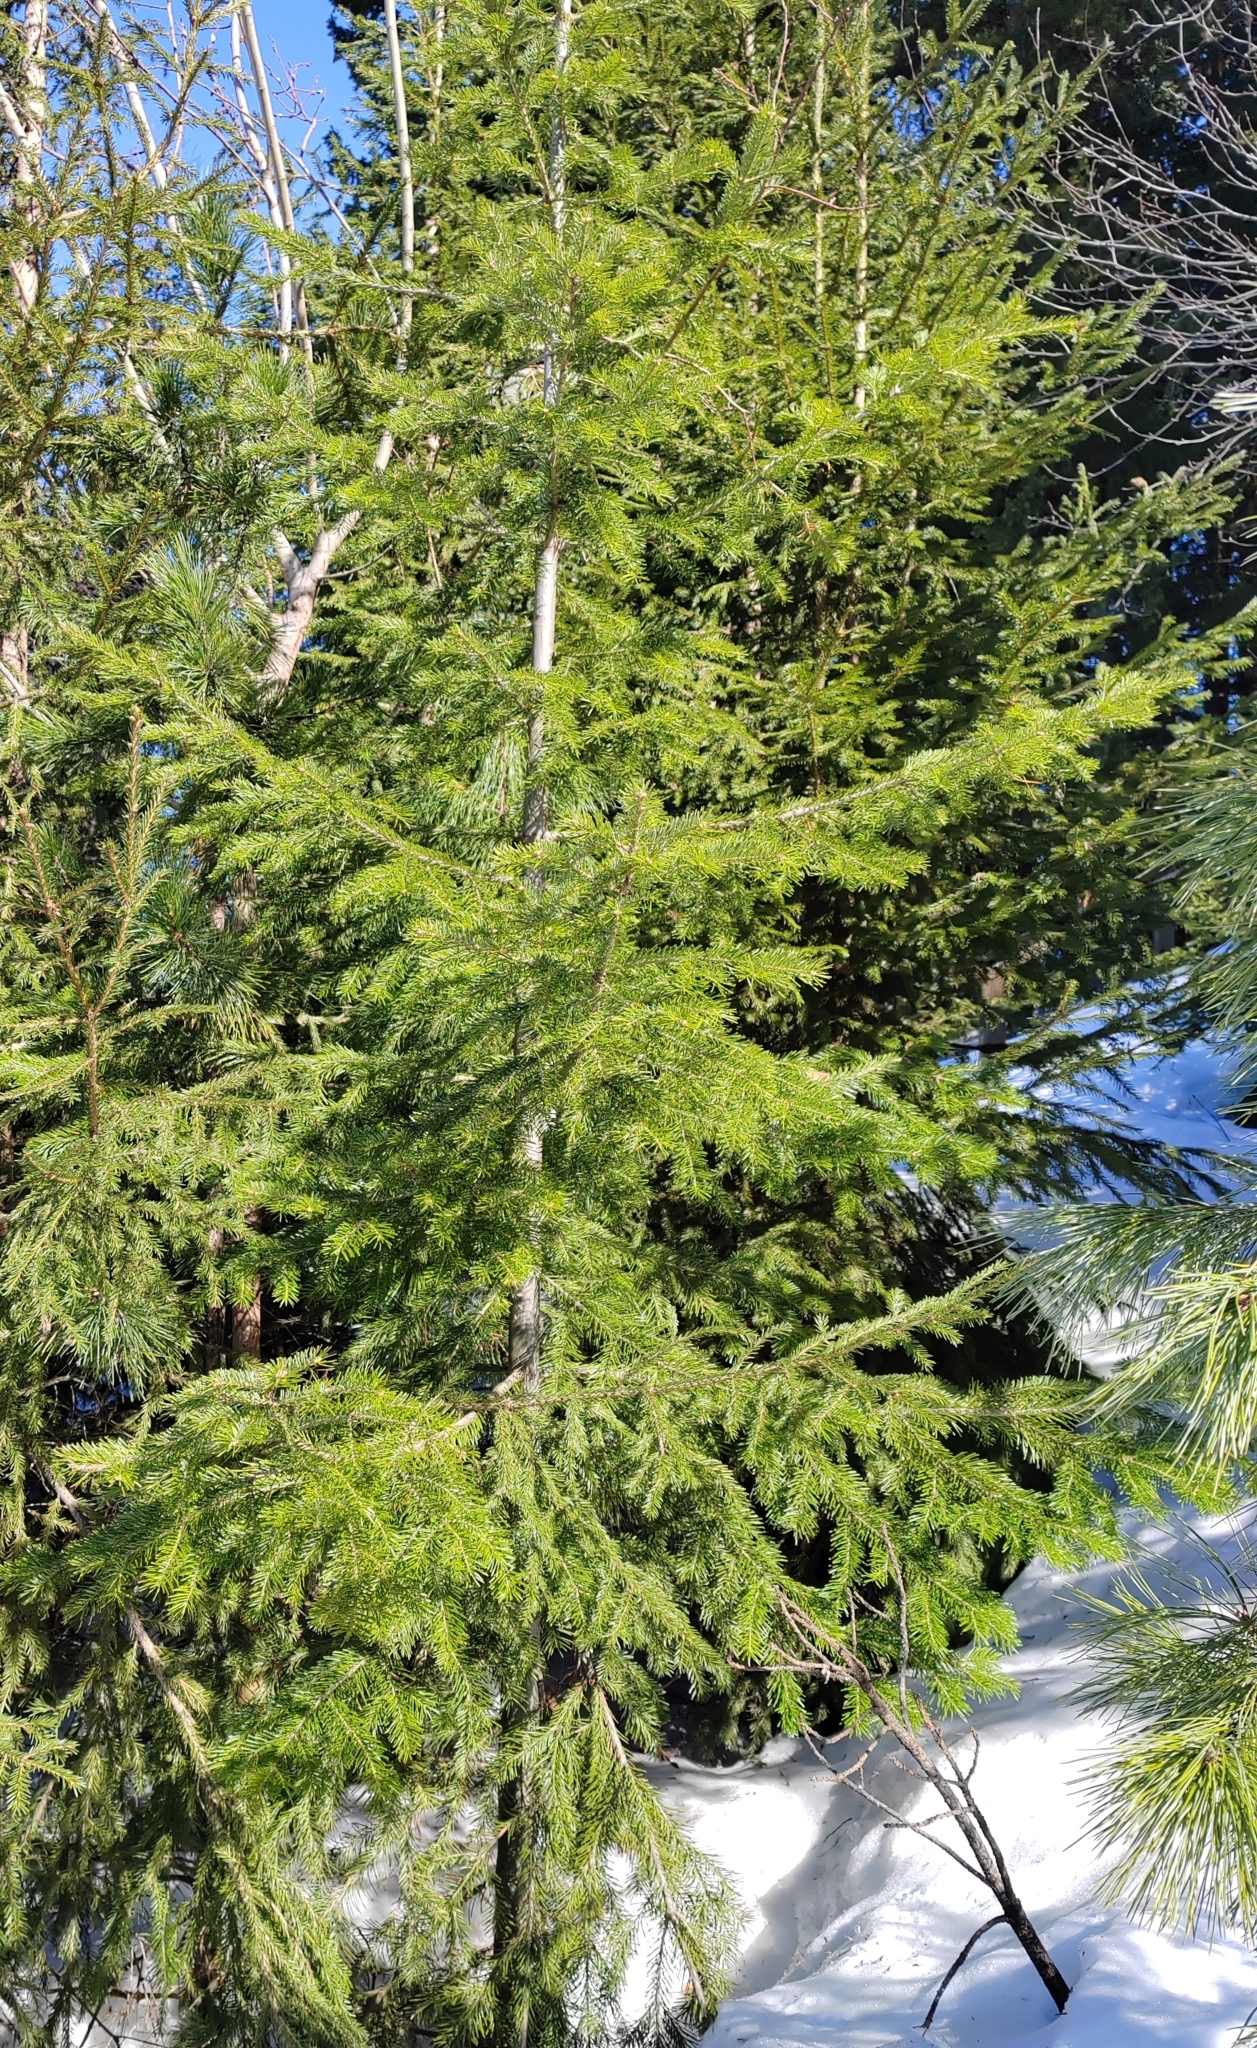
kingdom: Plantae
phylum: Tracheophyta
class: Pinopsida
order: Pinales
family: Pinaceae
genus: Abies
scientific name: Abies sibirica
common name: Siberian fir
